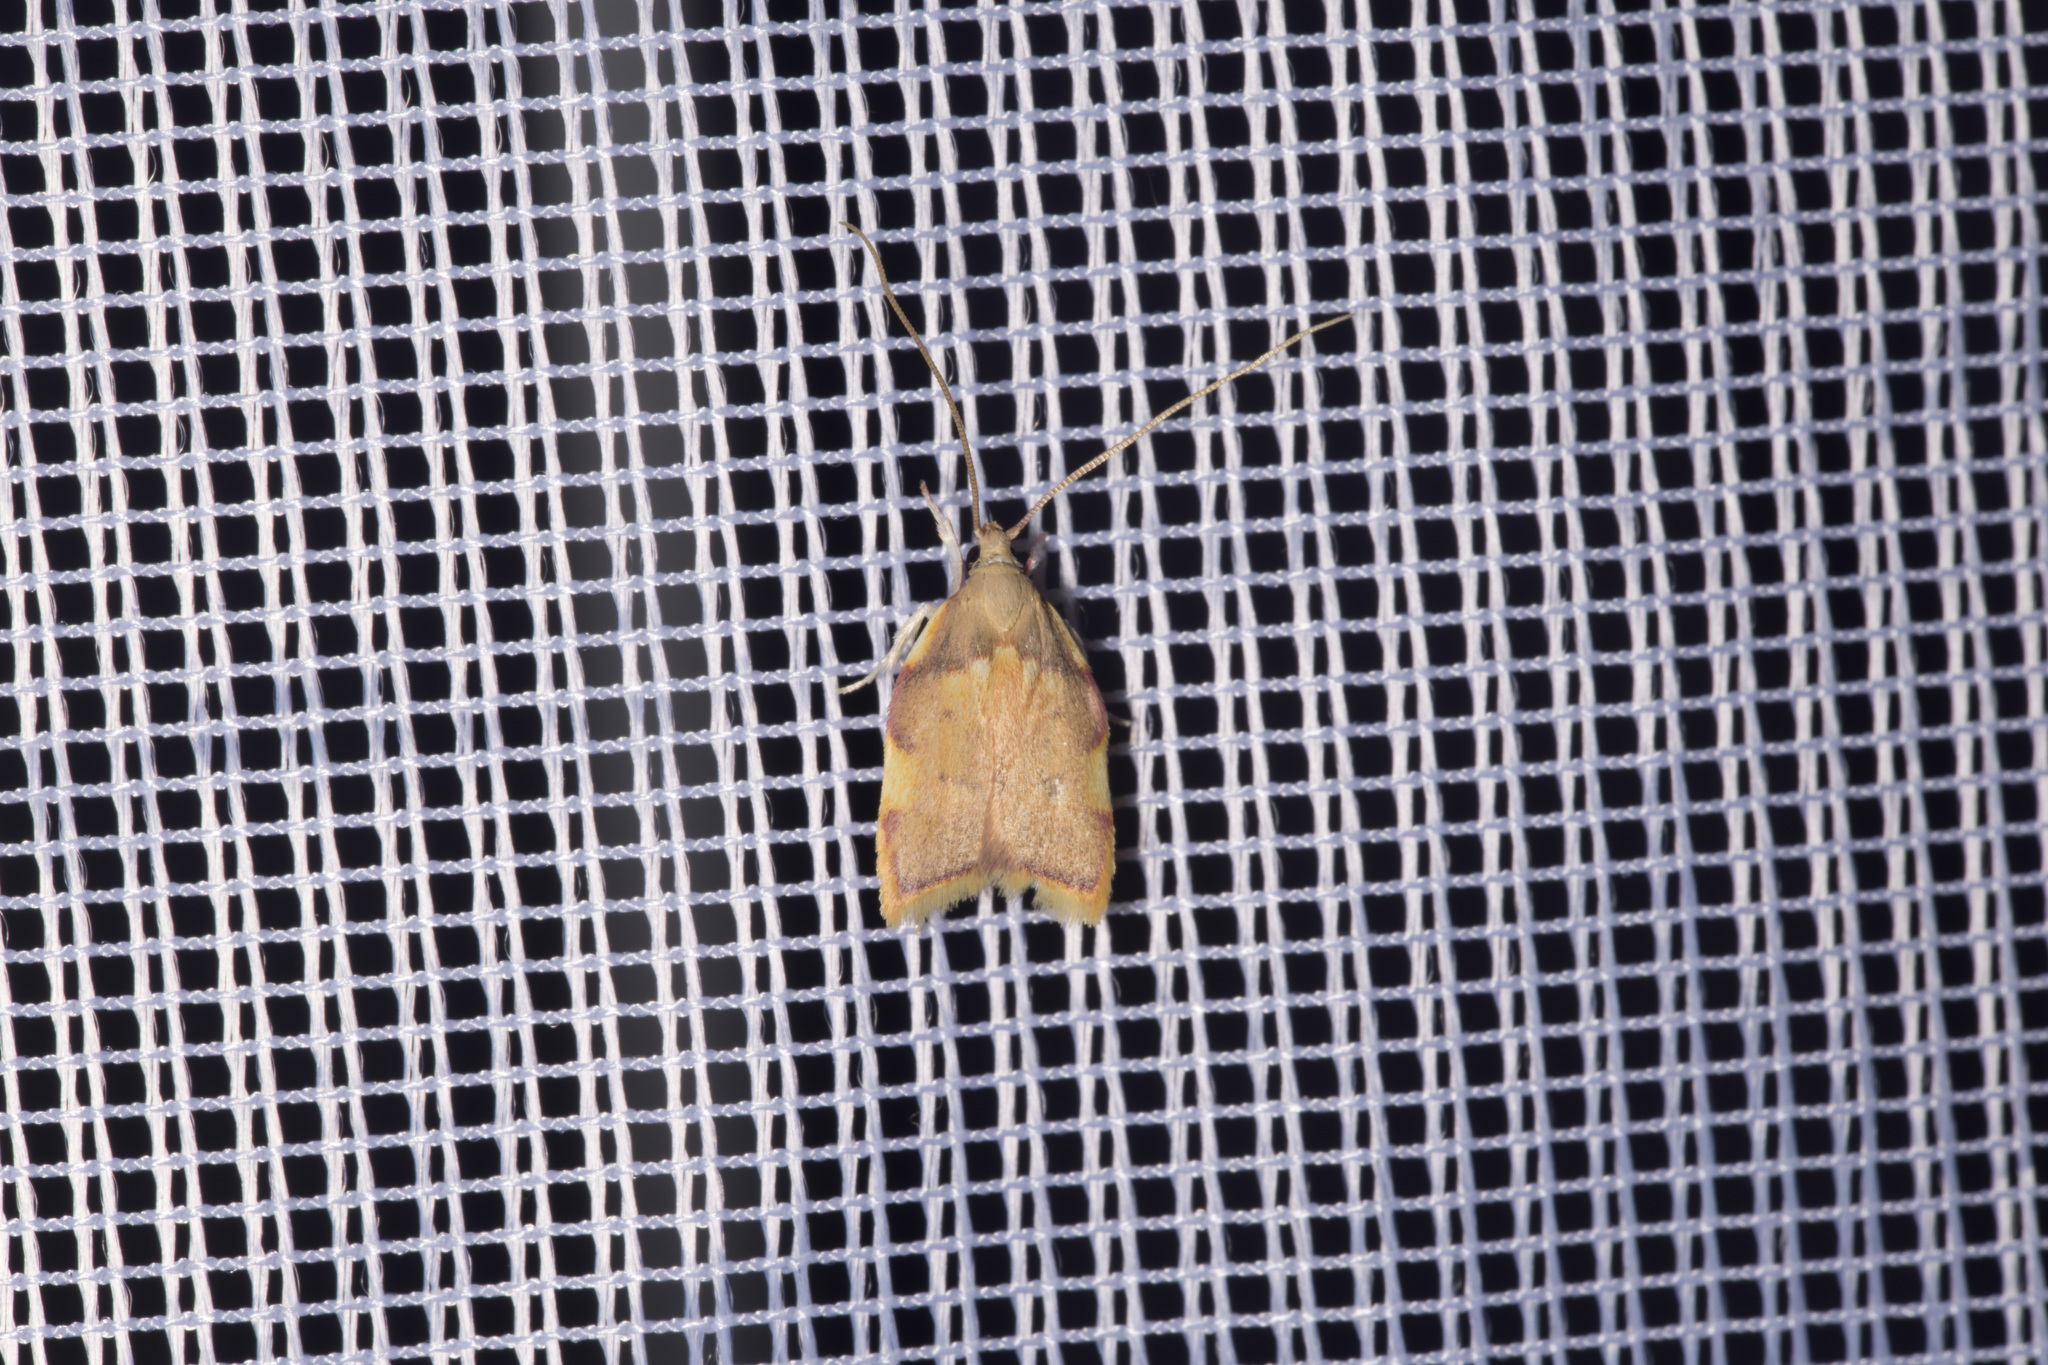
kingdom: Animalia
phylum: Arthropoda
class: Insecta
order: Lepidoptera
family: Peleopodidae
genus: Carcina
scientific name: Carcina quercana
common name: Moth
